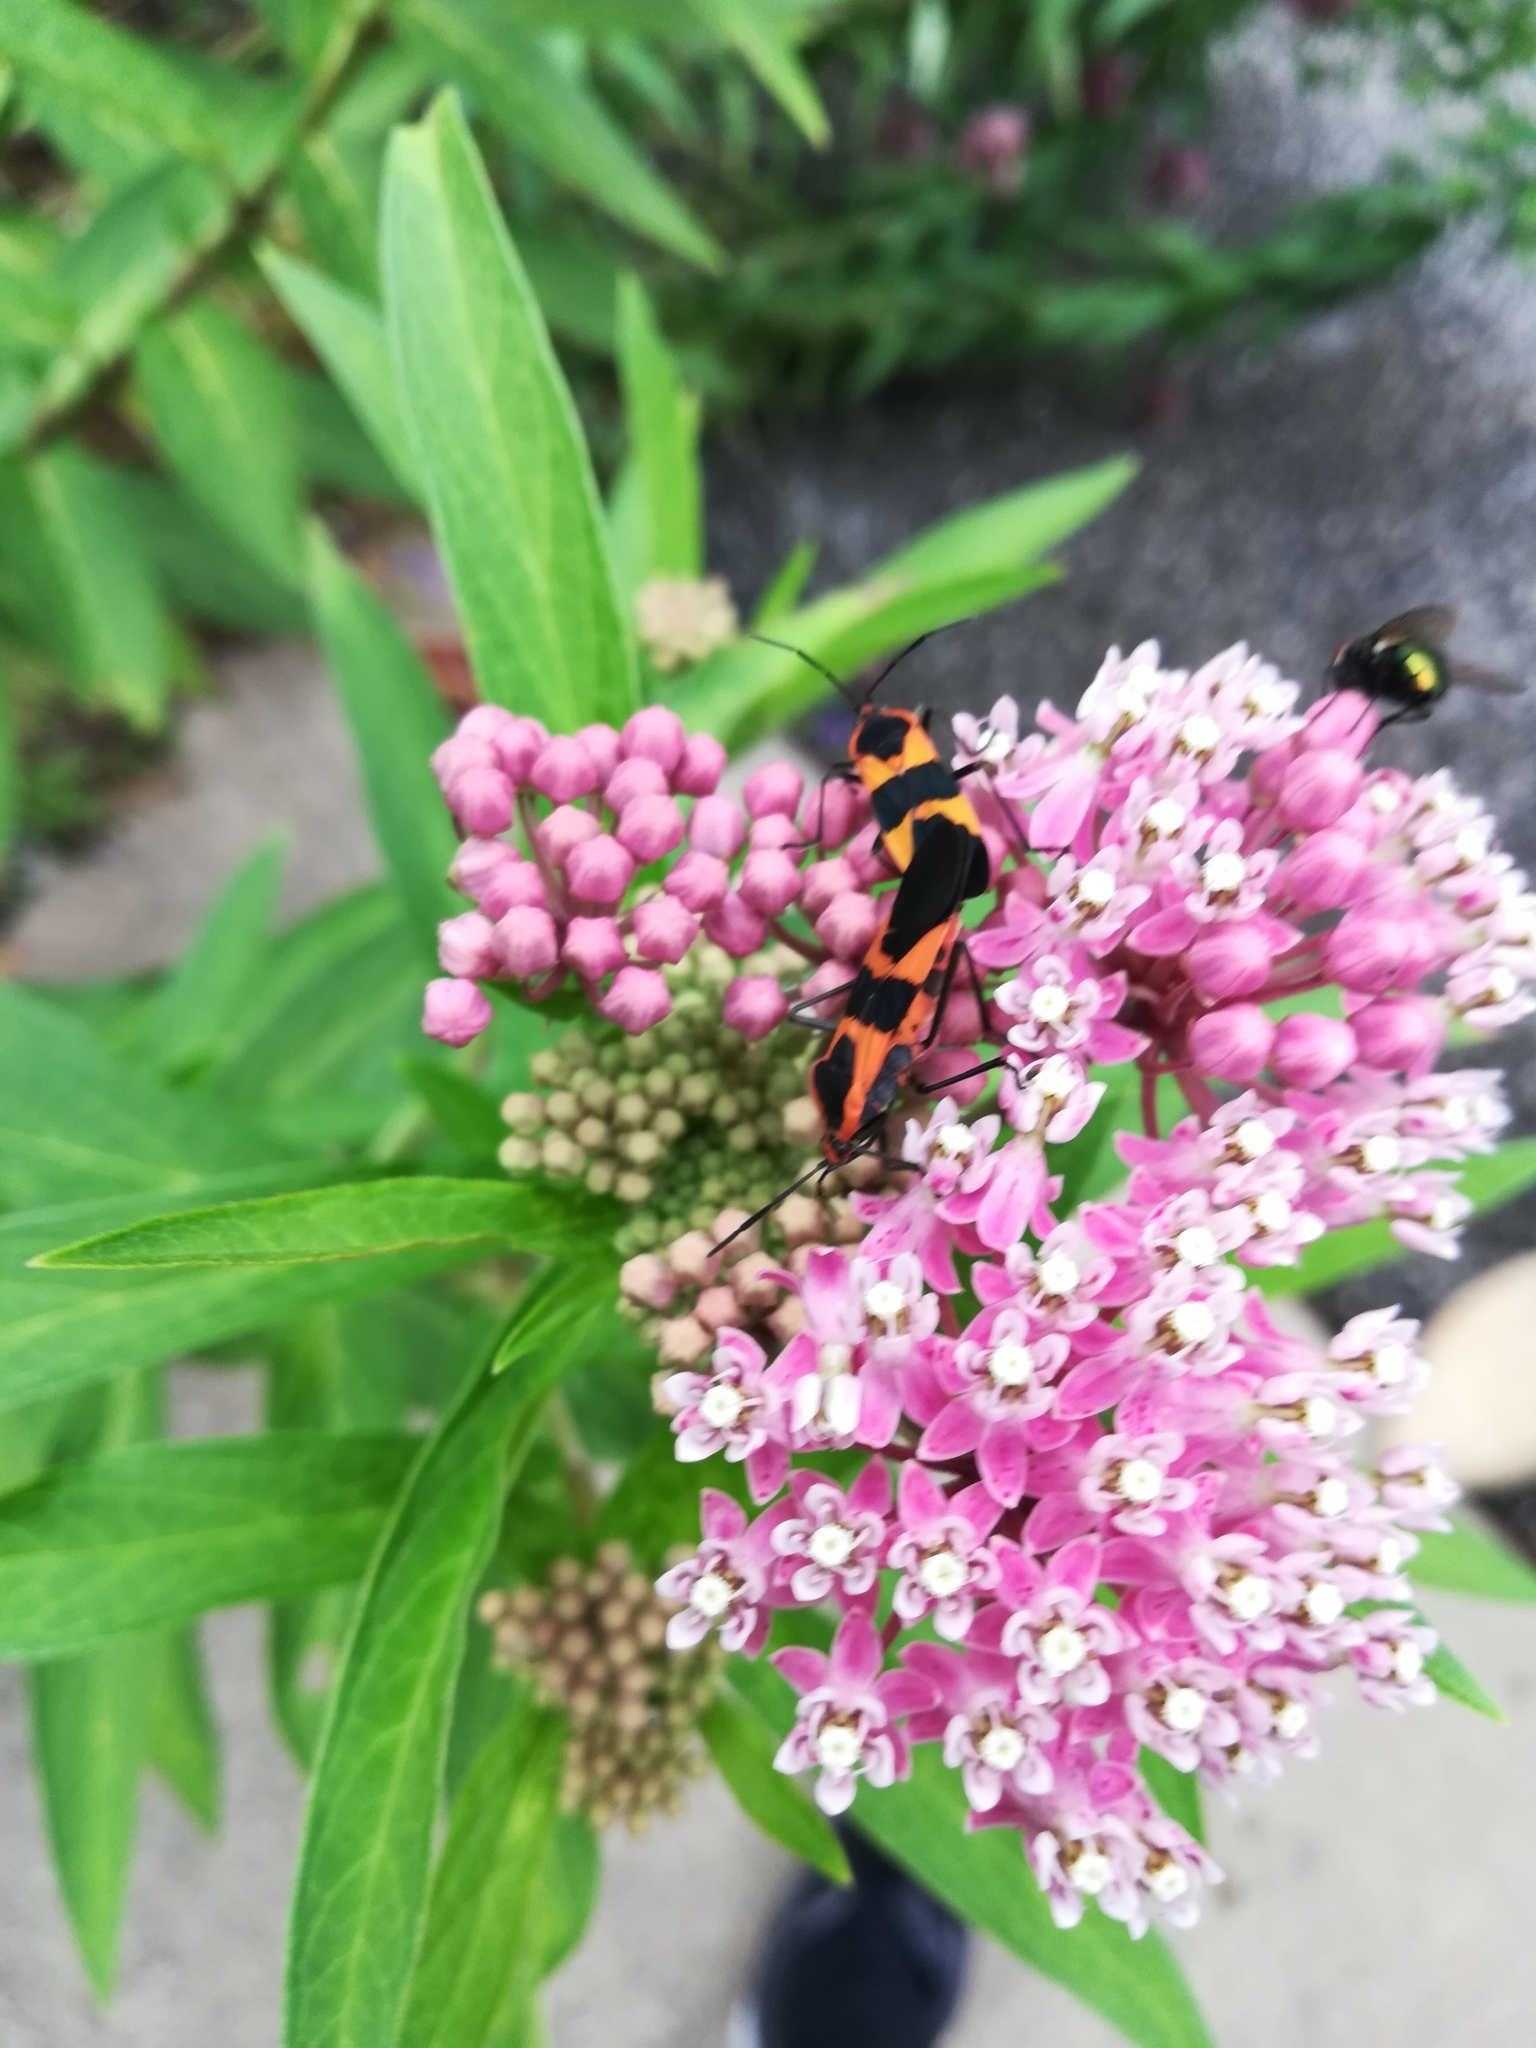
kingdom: Animalia
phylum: Arthropoda
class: Insecta
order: Hemiptera
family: Lygaeidae
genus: Oncopeltus
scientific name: Oncopeltus fasciatus
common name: Large milkweed bug
